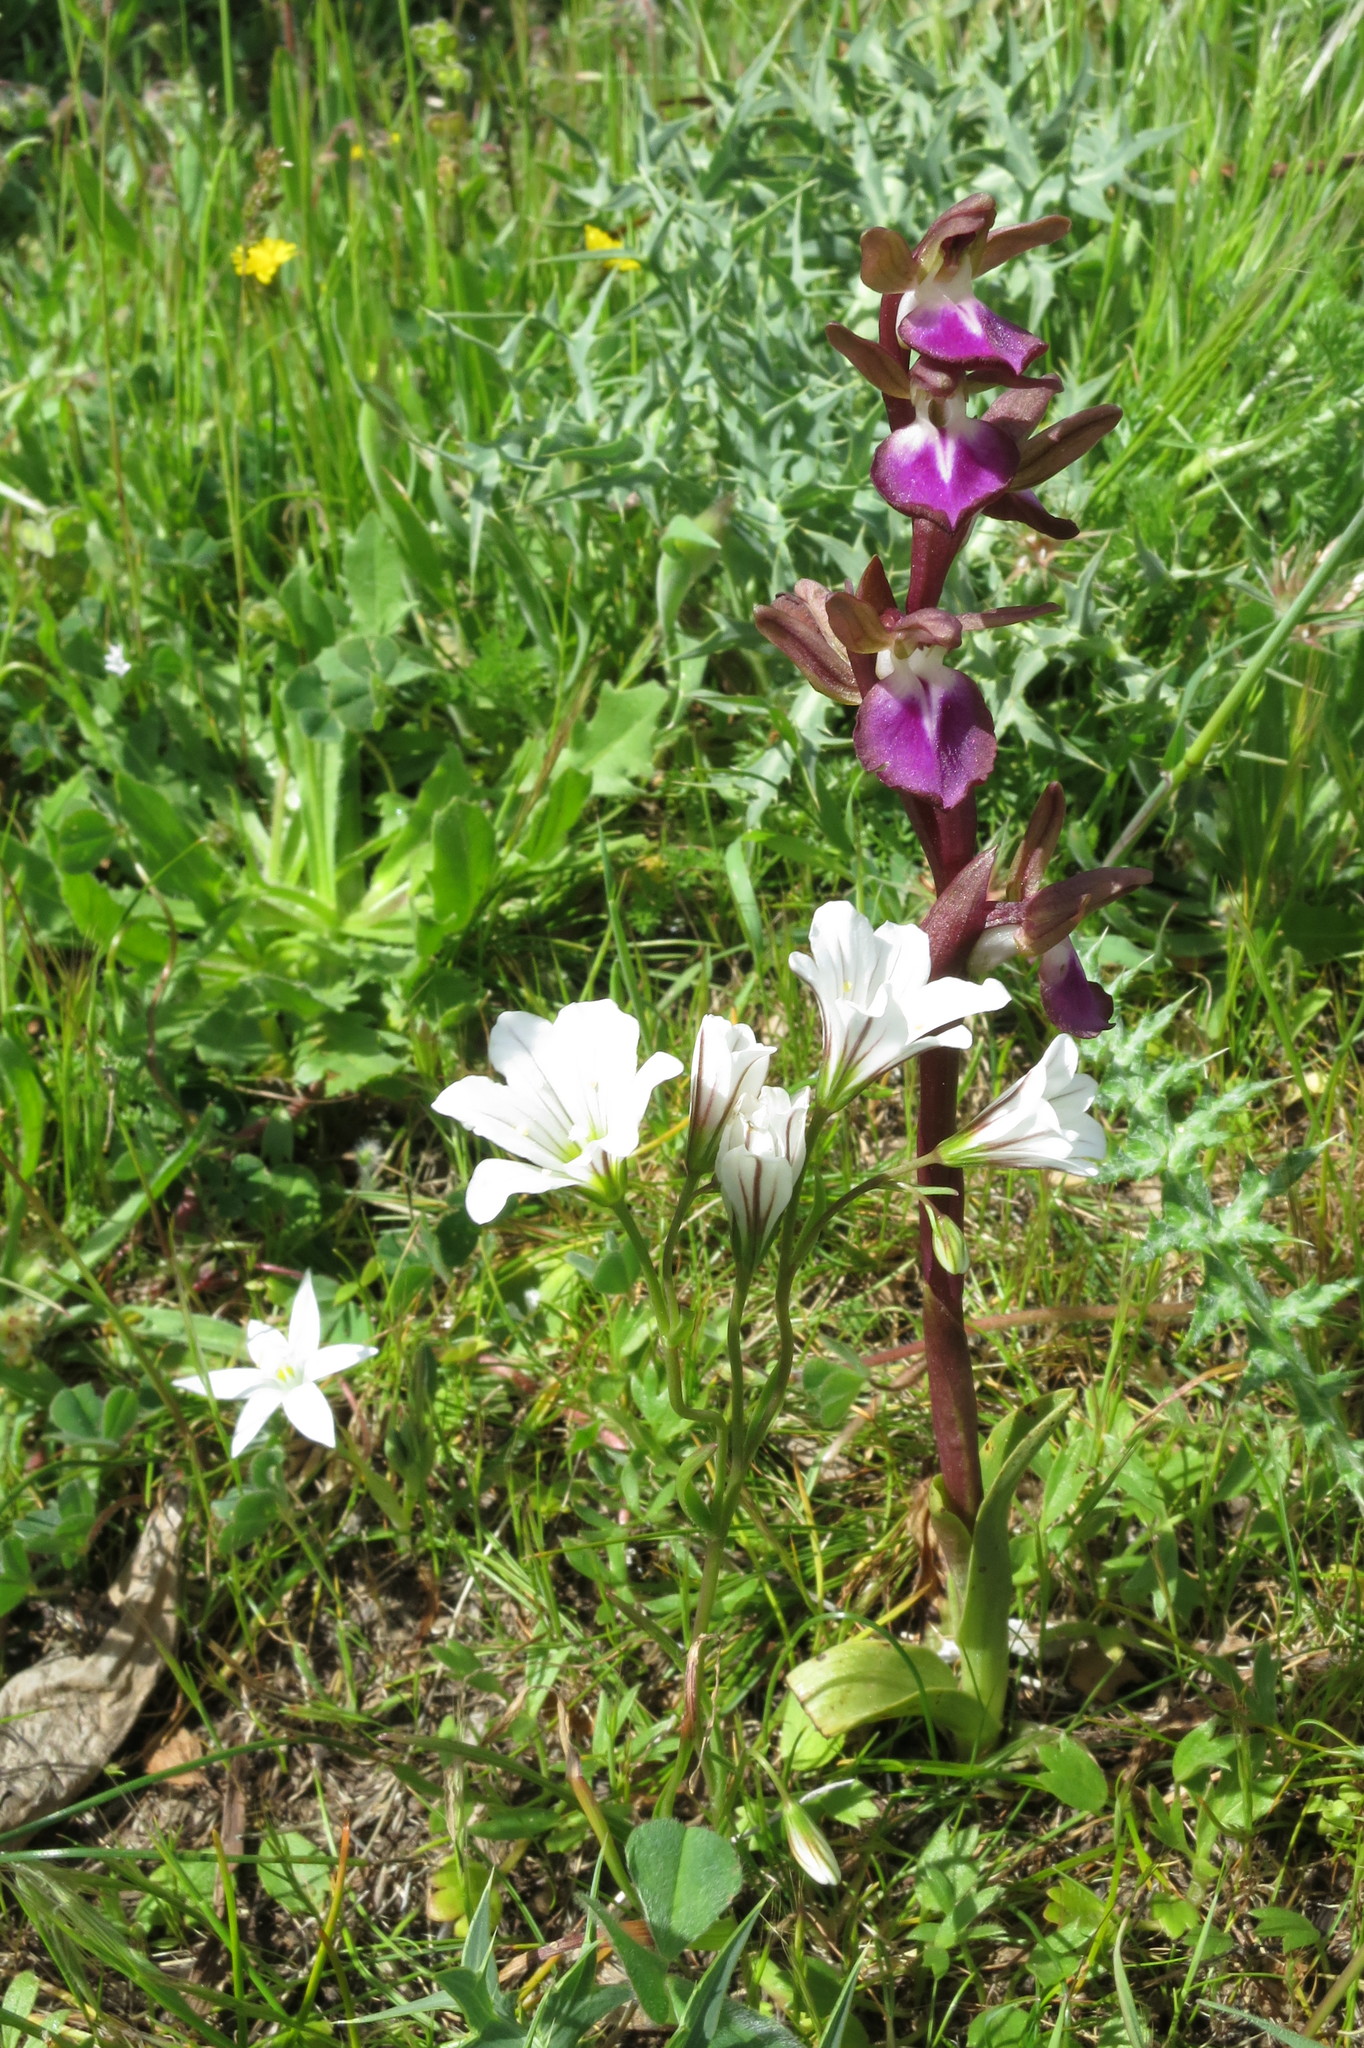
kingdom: Plantae
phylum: Tracheophyta
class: Liliopsida
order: Asparagales
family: Orchidaceae
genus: Anacamptis
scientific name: Anacamptis collina
